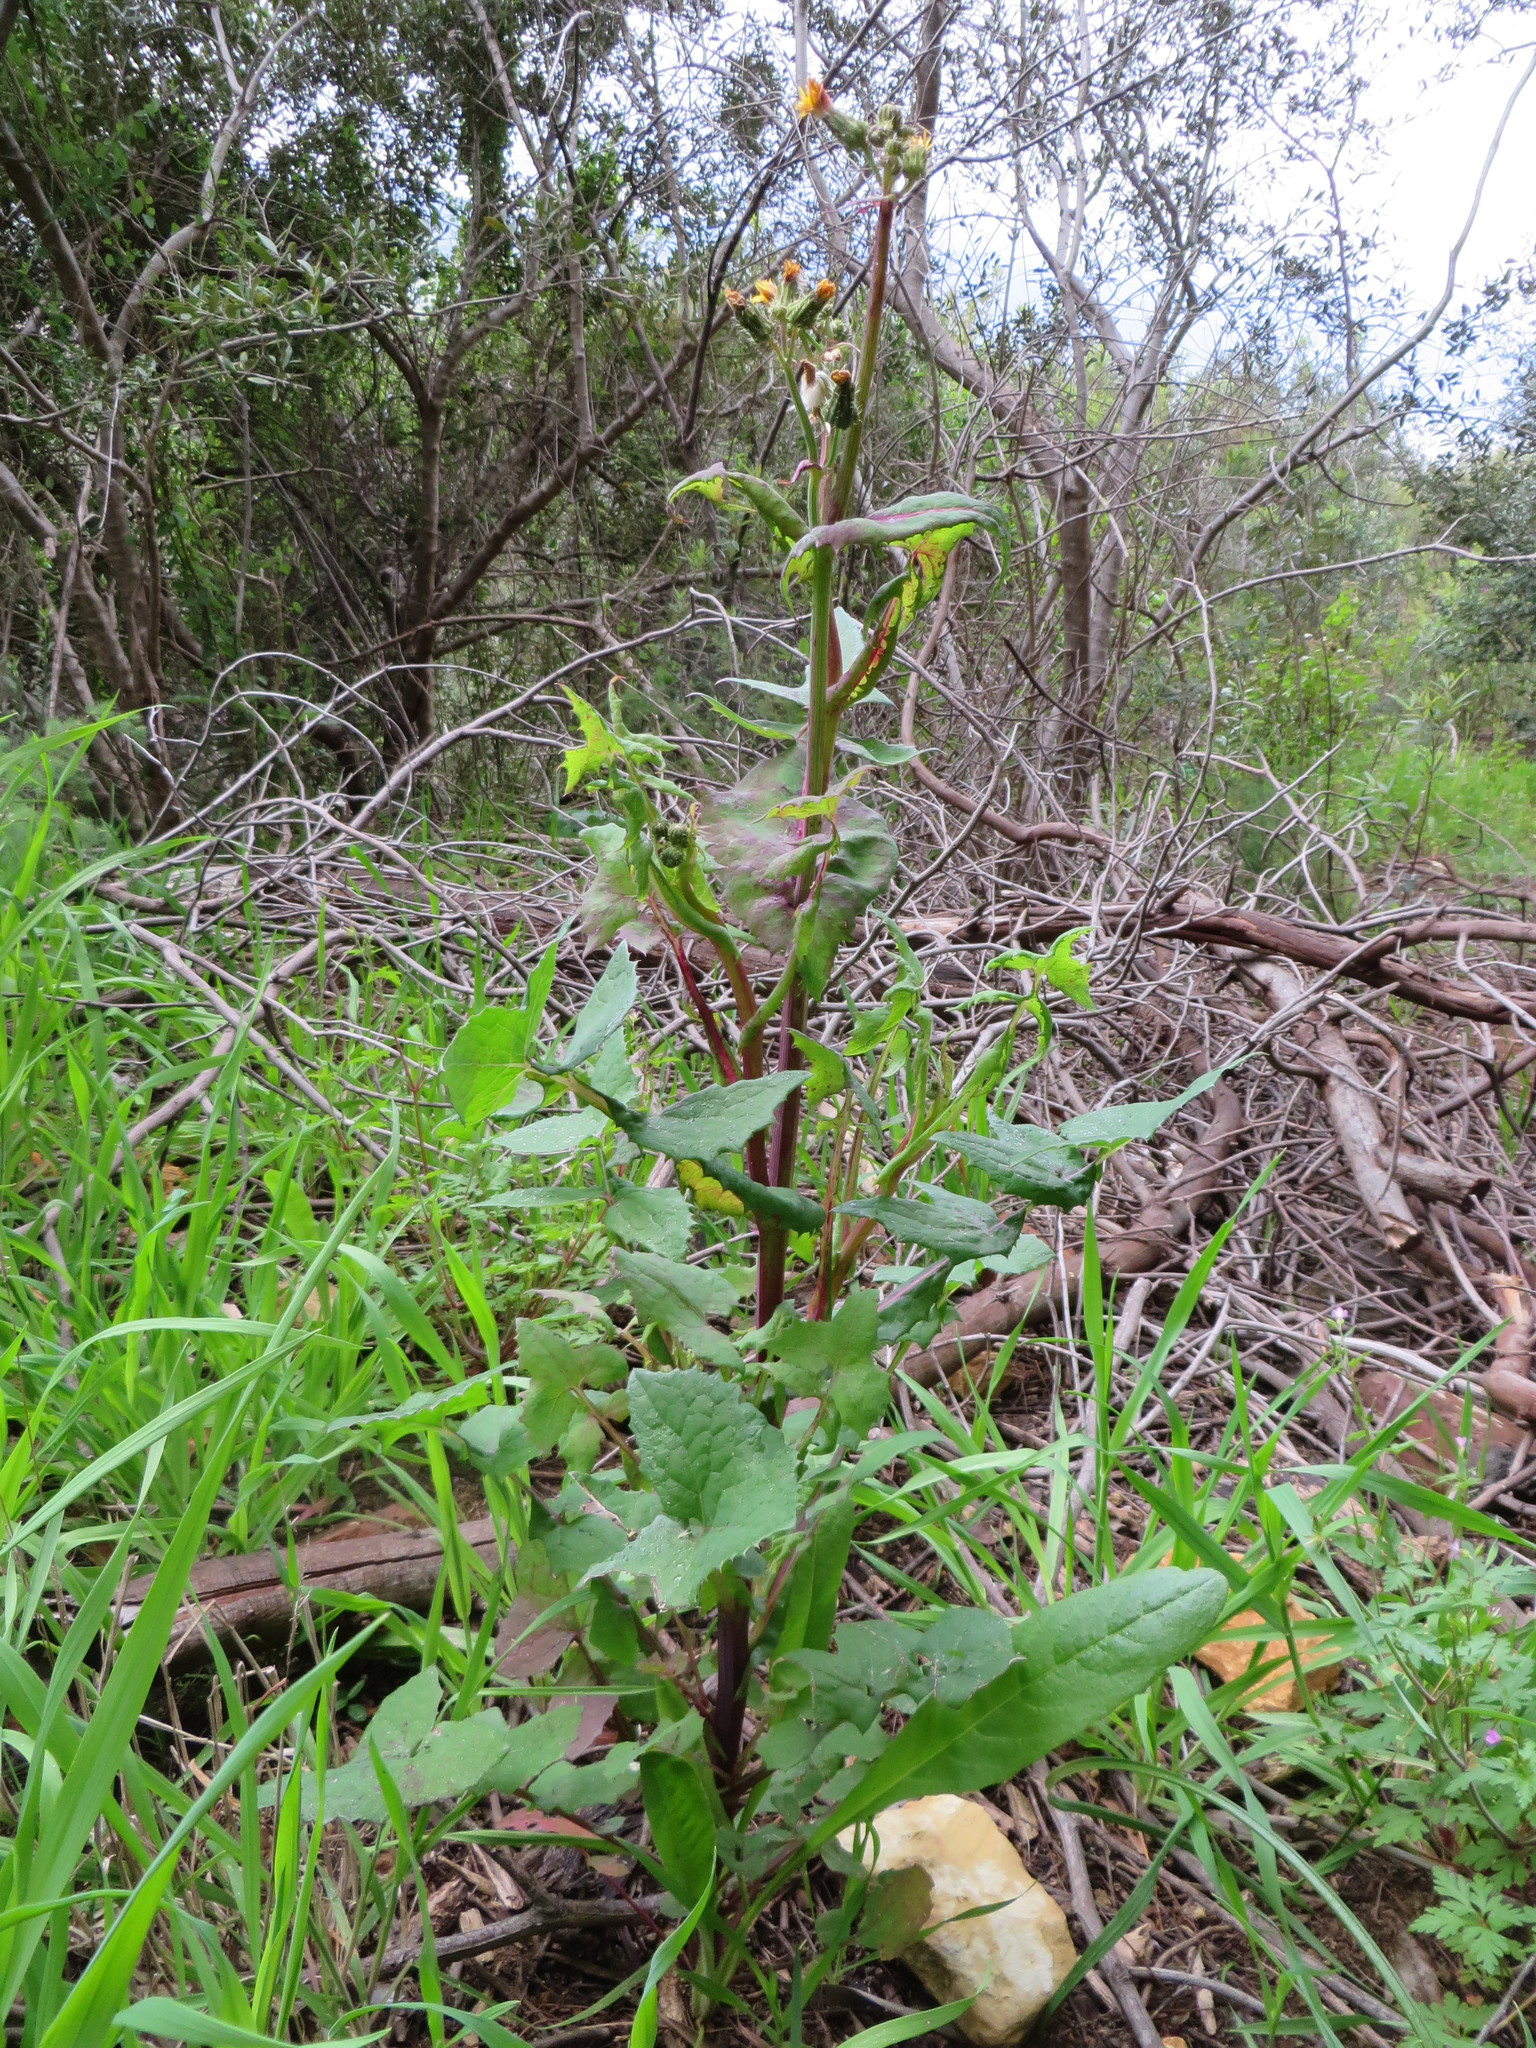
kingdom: Plantae
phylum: Tracheophyta
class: Magnoliopsida
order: Asterales
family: Asteraceae
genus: Sonchus
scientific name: Sonchus oleraceus
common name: Common sowthistle
